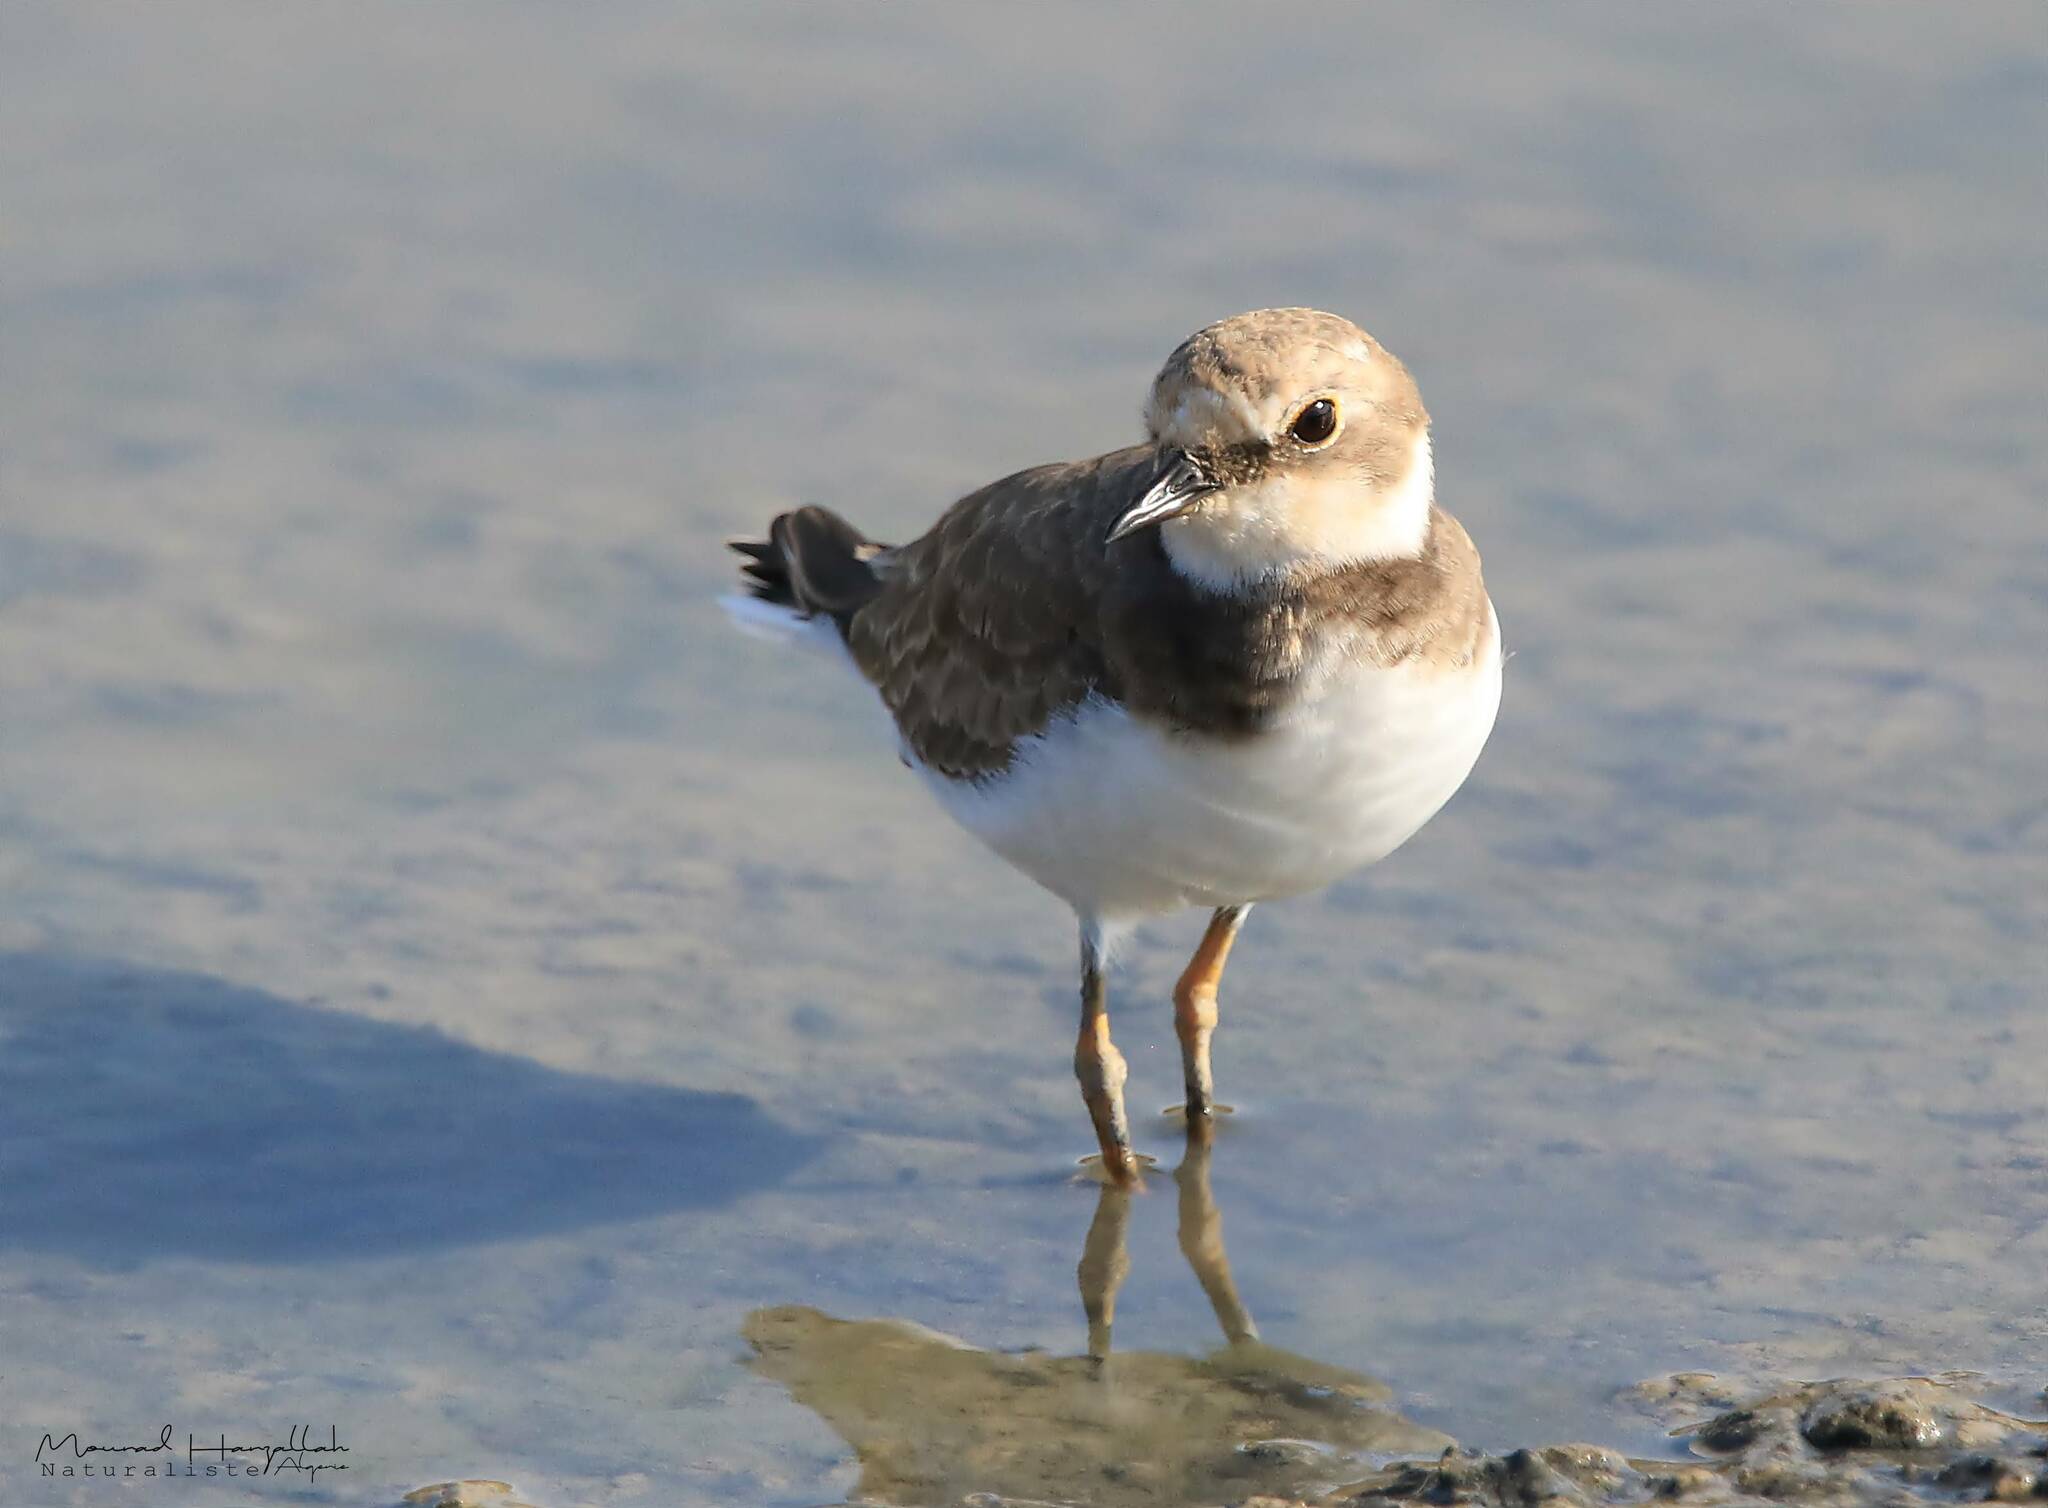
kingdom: Animalia
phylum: Chordata
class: Aves
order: Charadriiformes
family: Charadriidae
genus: Charadrius
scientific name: Charadrius dubius
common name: Little ringed plover
